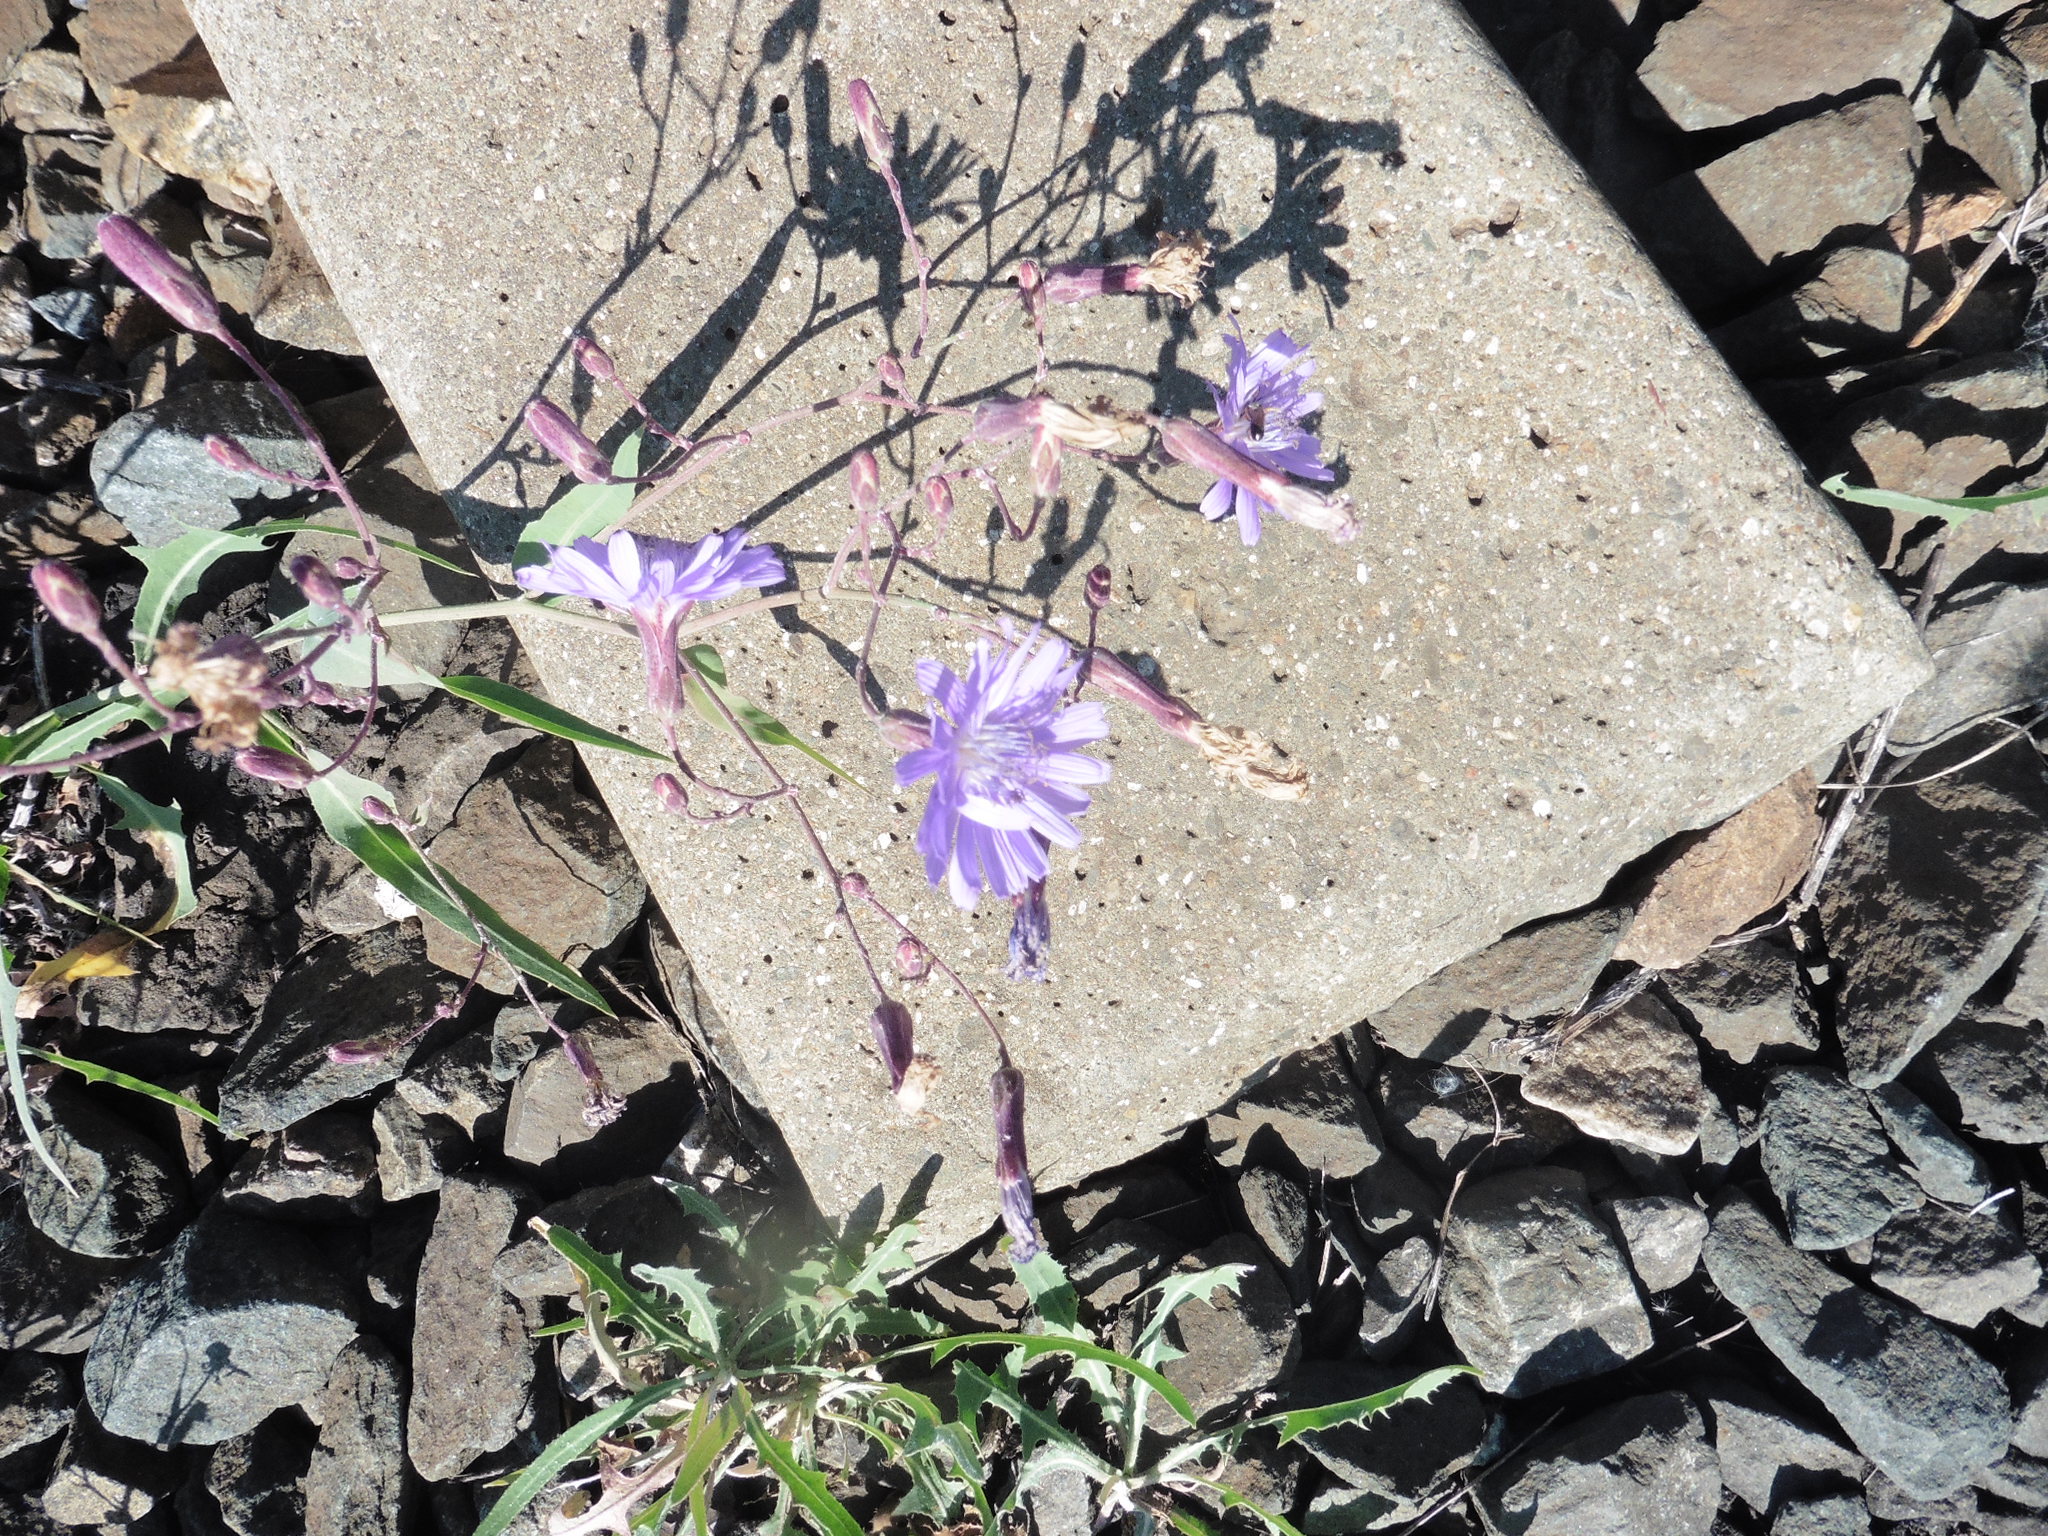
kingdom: Plantae
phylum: Tracheophyta
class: Magnoliopsida
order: Asterales
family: Asteraceae
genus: Lactuca
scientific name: Lactuca tatarica
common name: Blue lettuce
